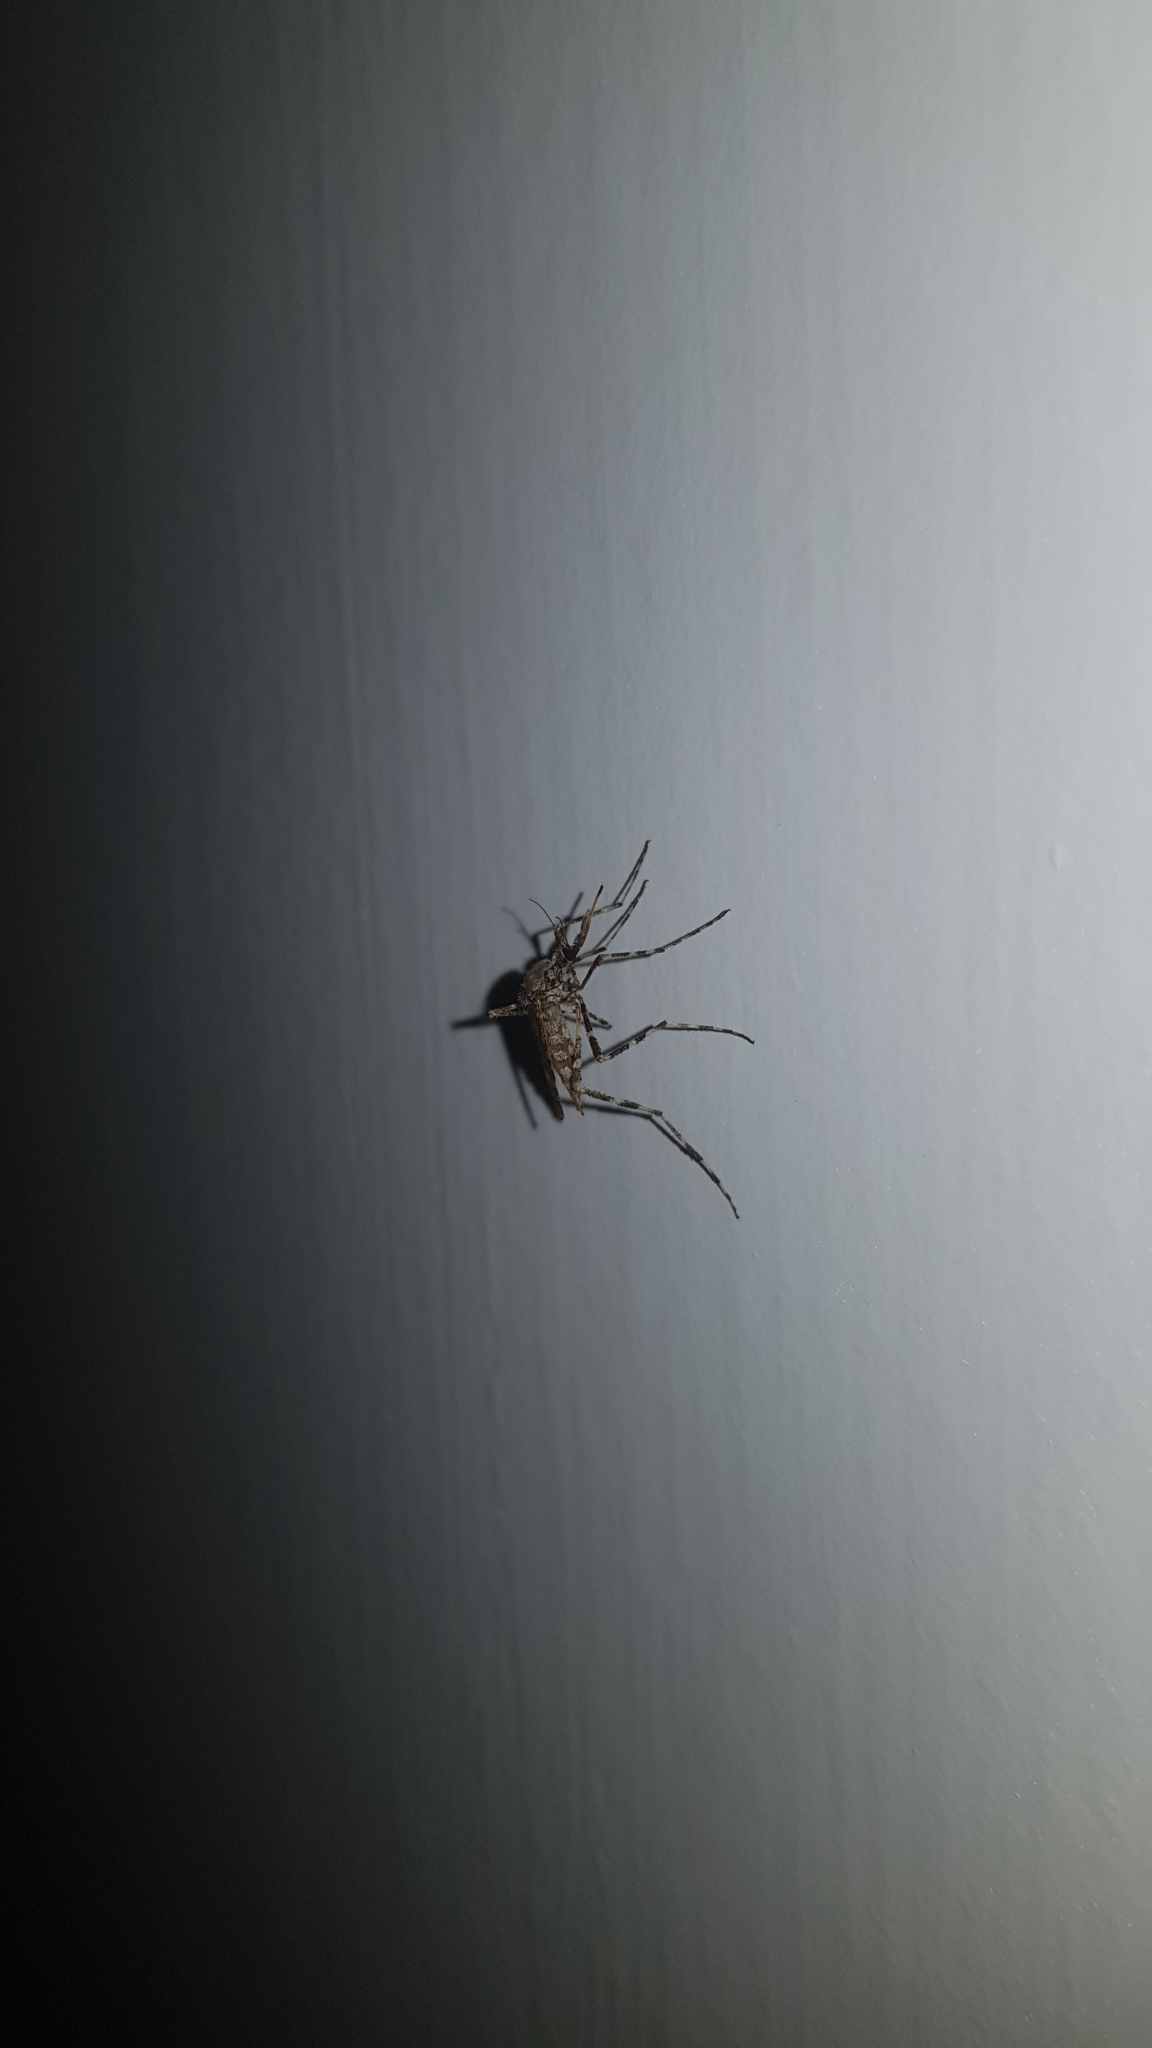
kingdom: Animalia
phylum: Arthropoda
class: Insecta
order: Diptera
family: Culicidae
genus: Aedes
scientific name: Aedes alternans
